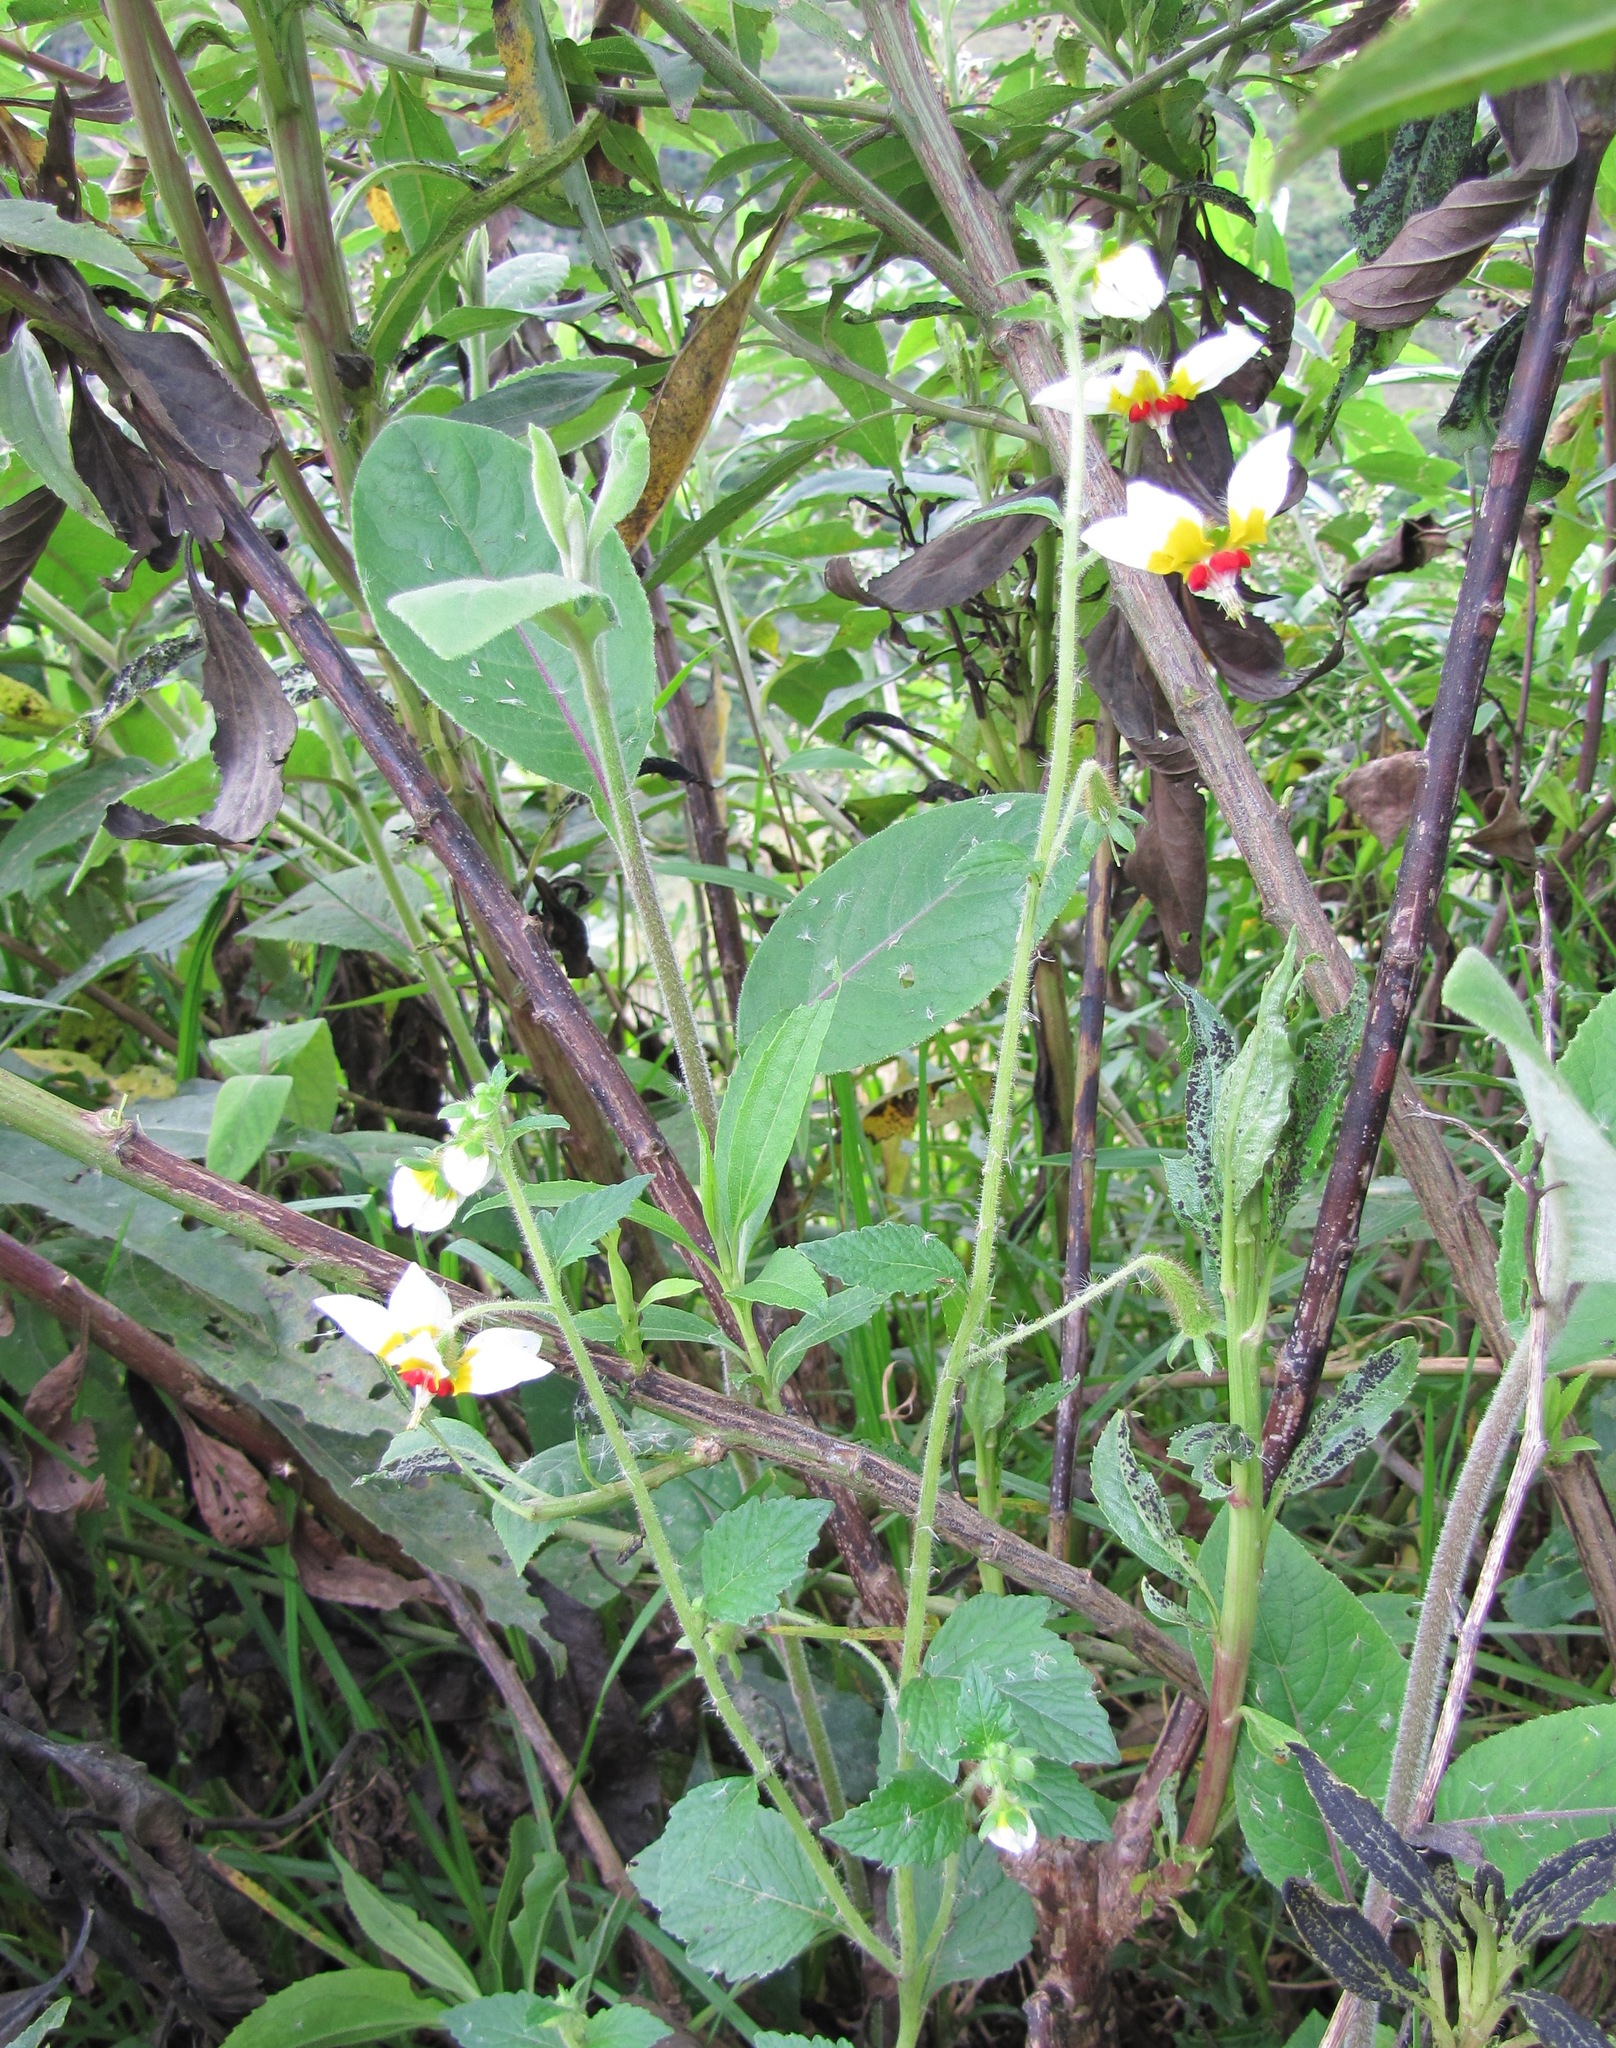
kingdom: Plantae
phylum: Tracheophyta
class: Magnoliopsida
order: Cornales
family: Loasaceae
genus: Nasa
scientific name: Nasa picta
